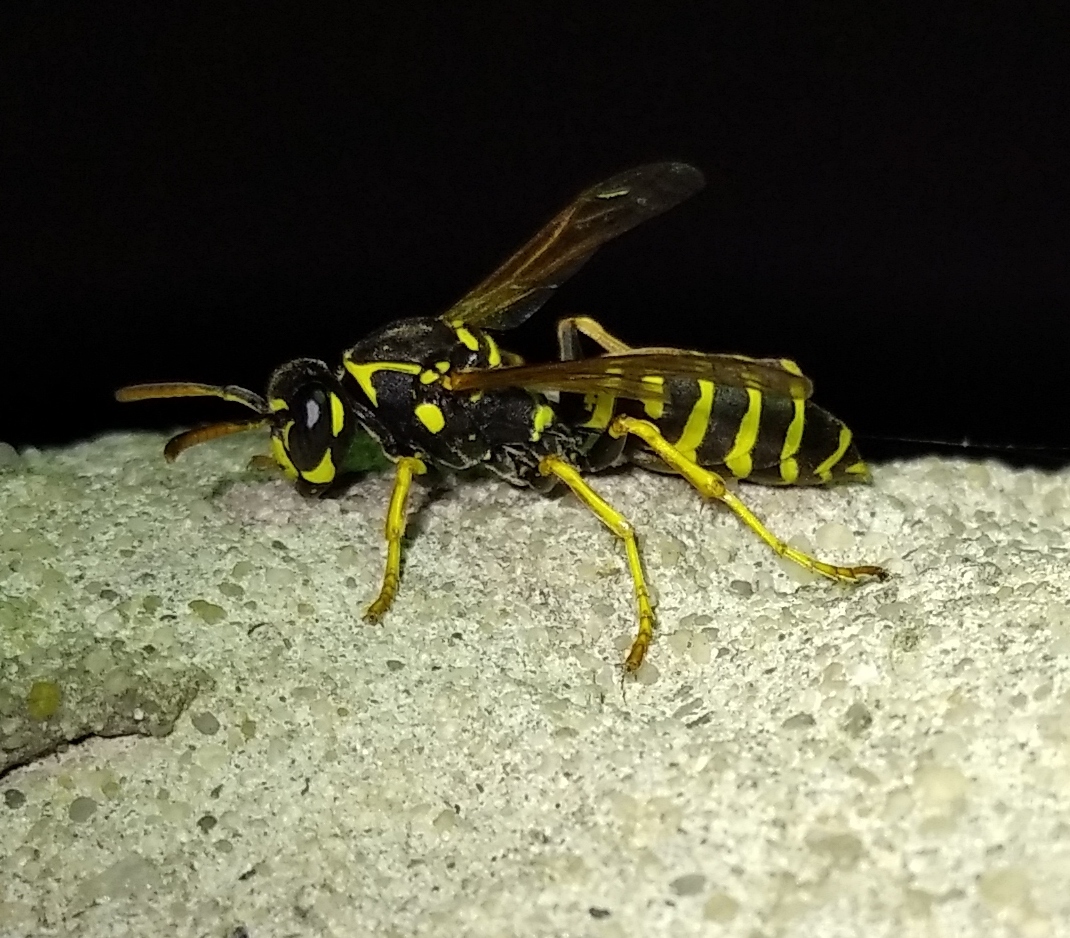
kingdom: Animalia
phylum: Arthropoda
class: Insecta
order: Hymenoptera
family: Eumenidae
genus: Polistes
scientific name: Polistes nimpha
